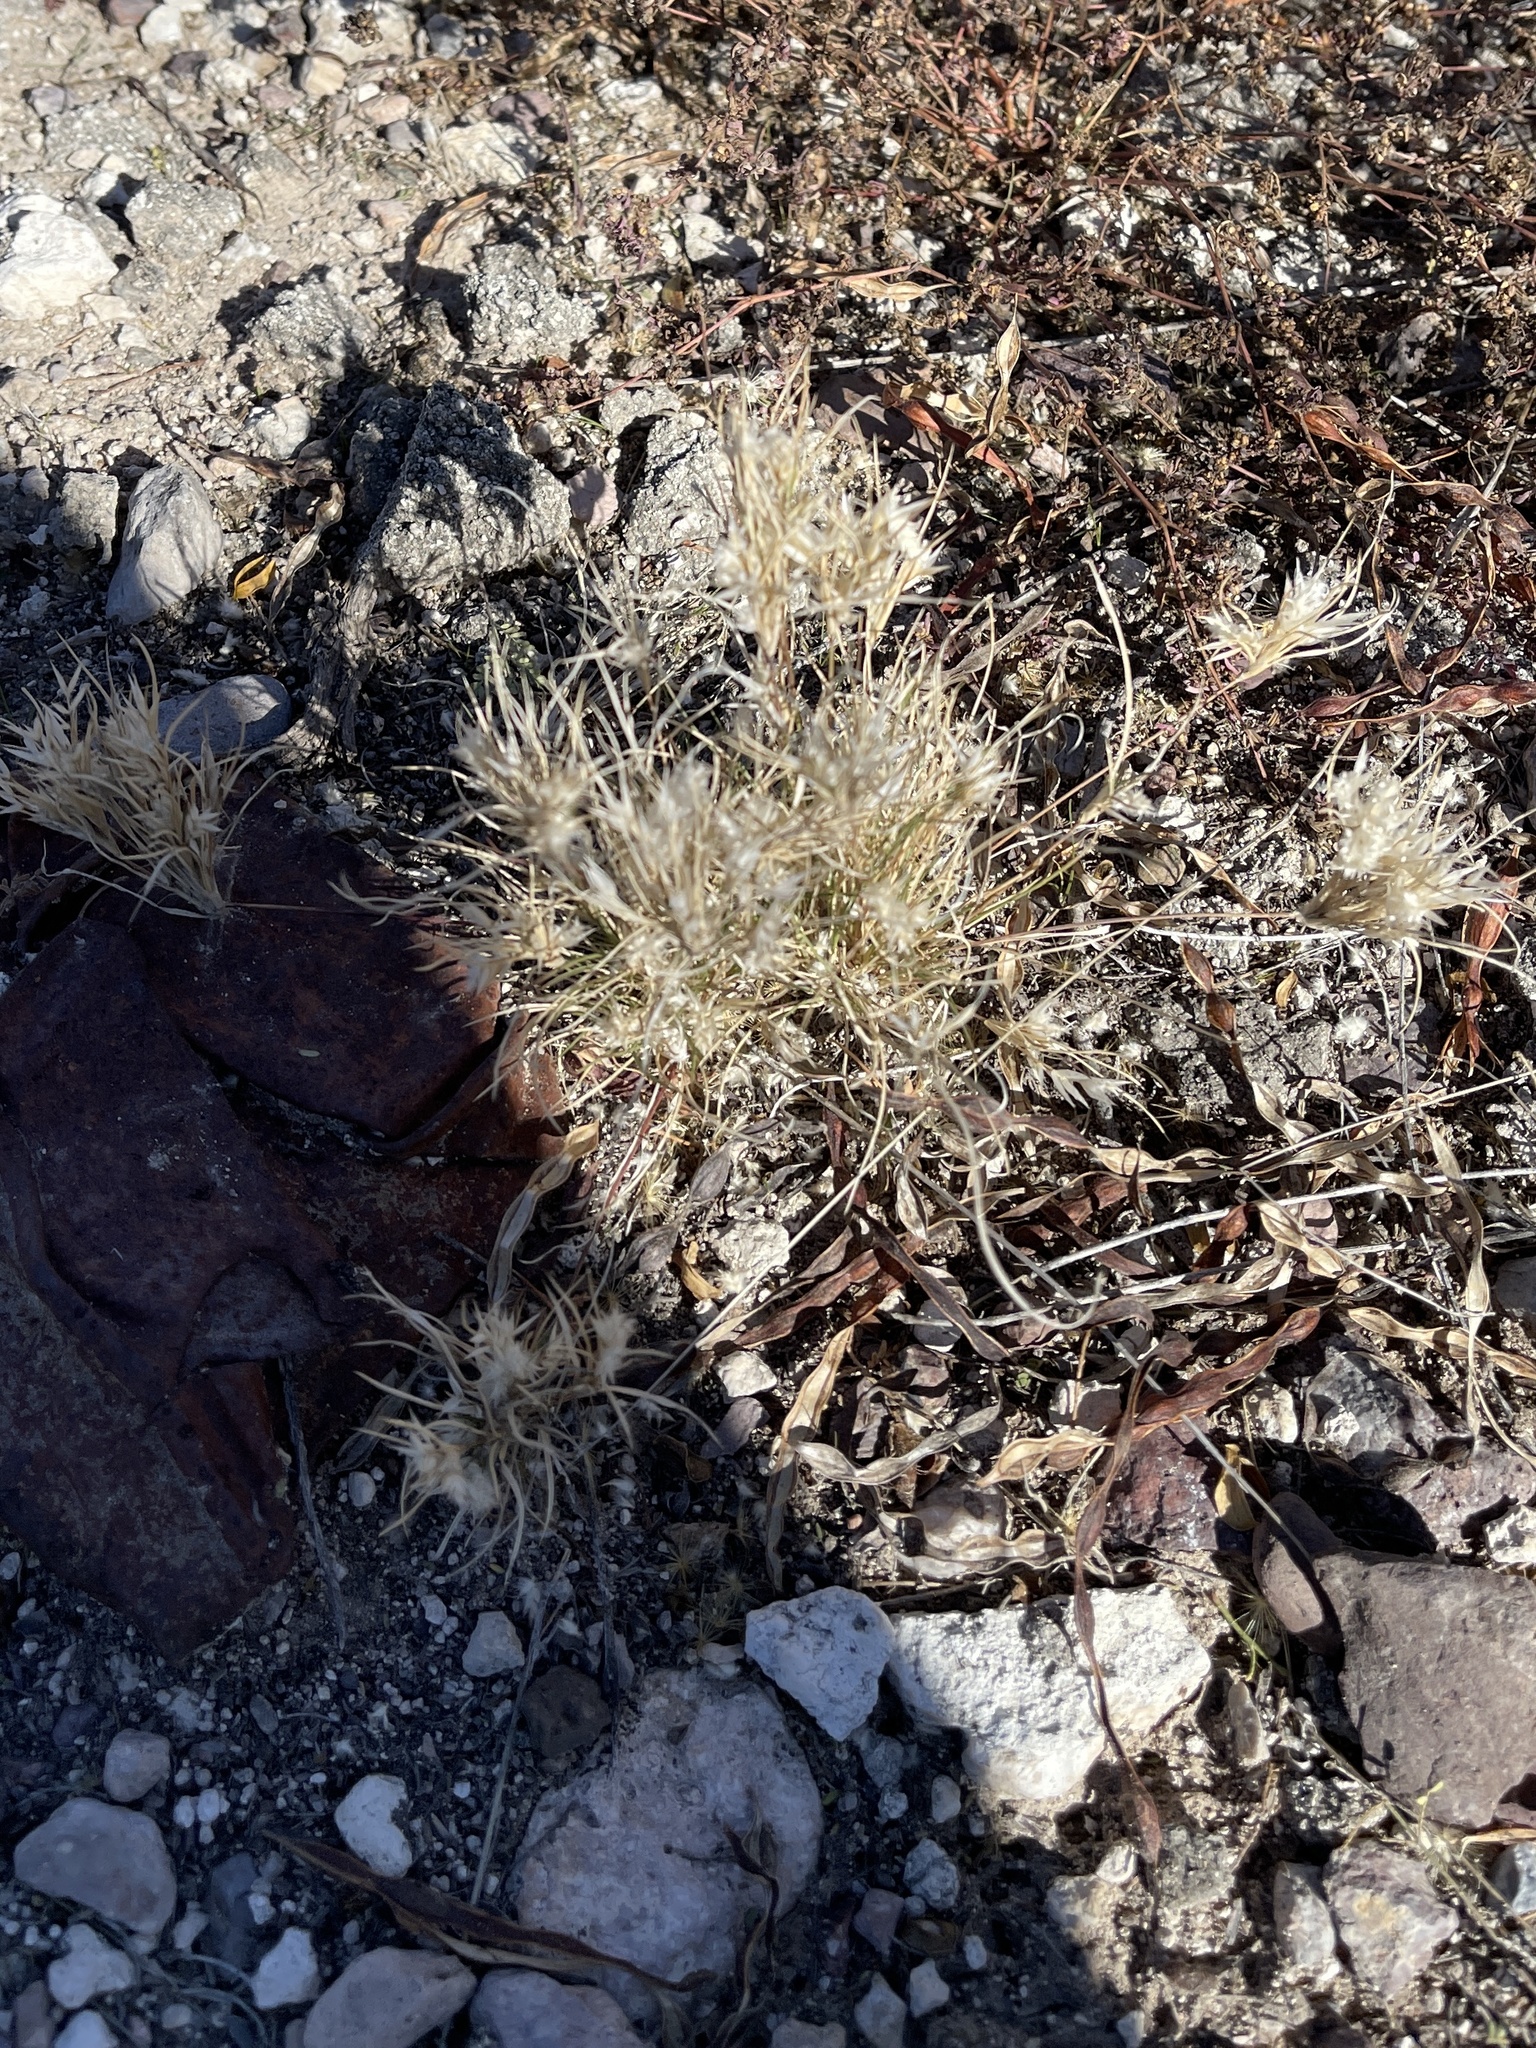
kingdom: Plantae
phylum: Tracheophyta
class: Liliopsida
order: Poales
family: Poaceae
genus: Dasyochloa
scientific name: Dasyochloa pulchella
